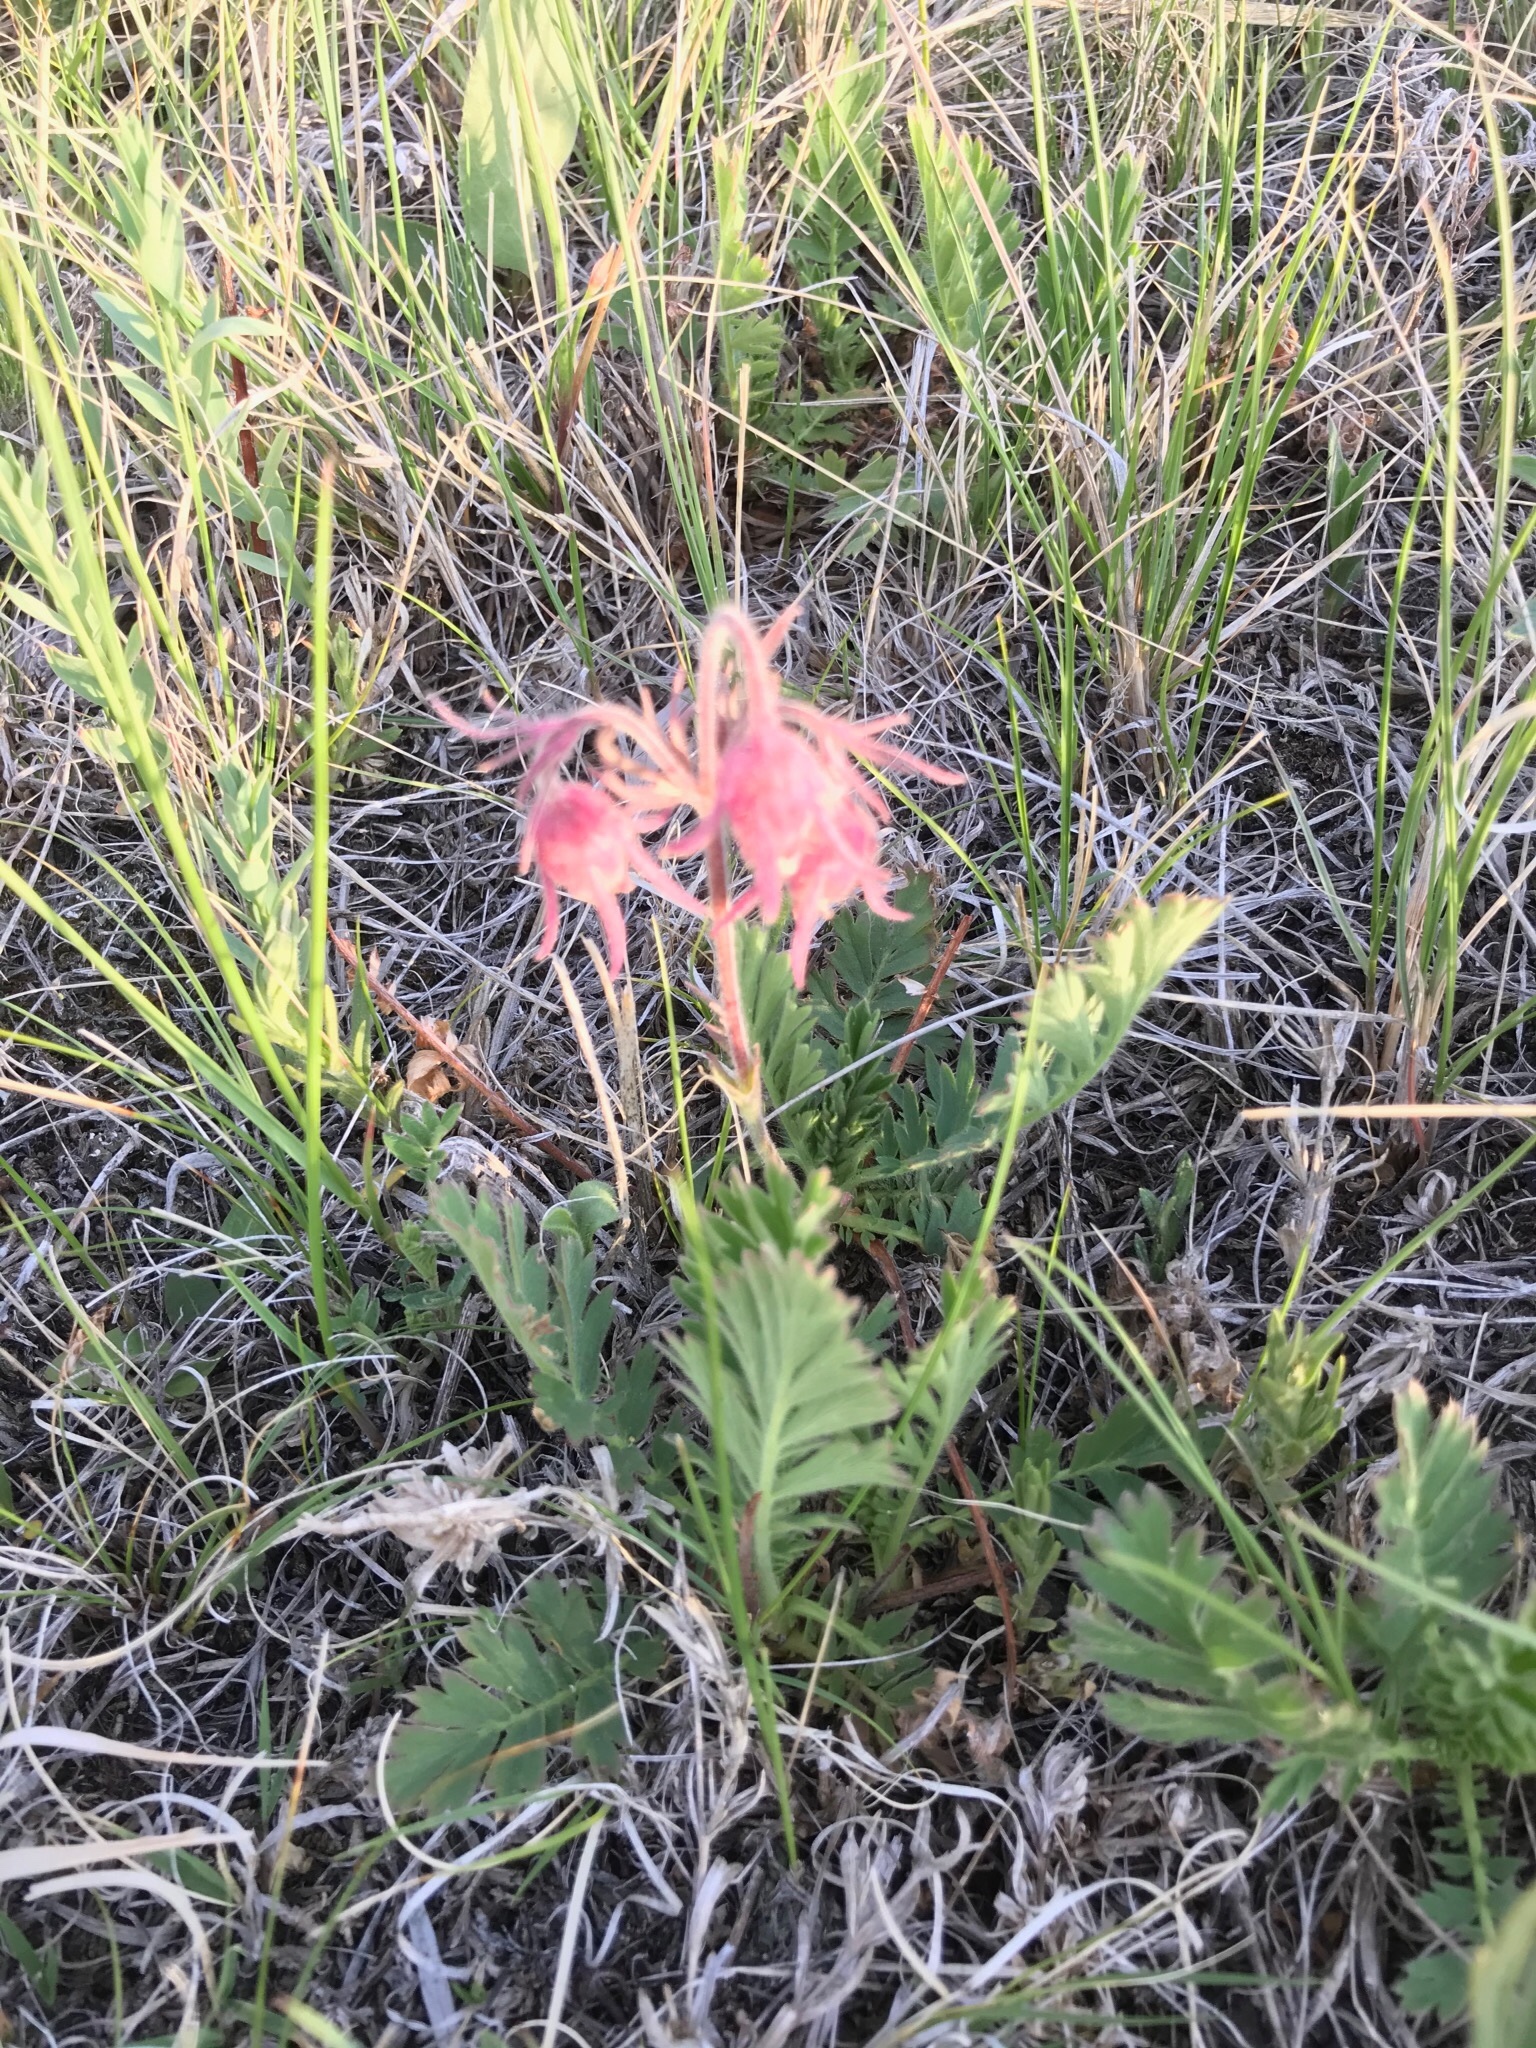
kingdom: Plantae
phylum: Tracheophyta
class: Magnoliopsida
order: Rosales
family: Rosaceae
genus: Geum
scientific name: Geum triflorum
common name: Old man's whiskers
